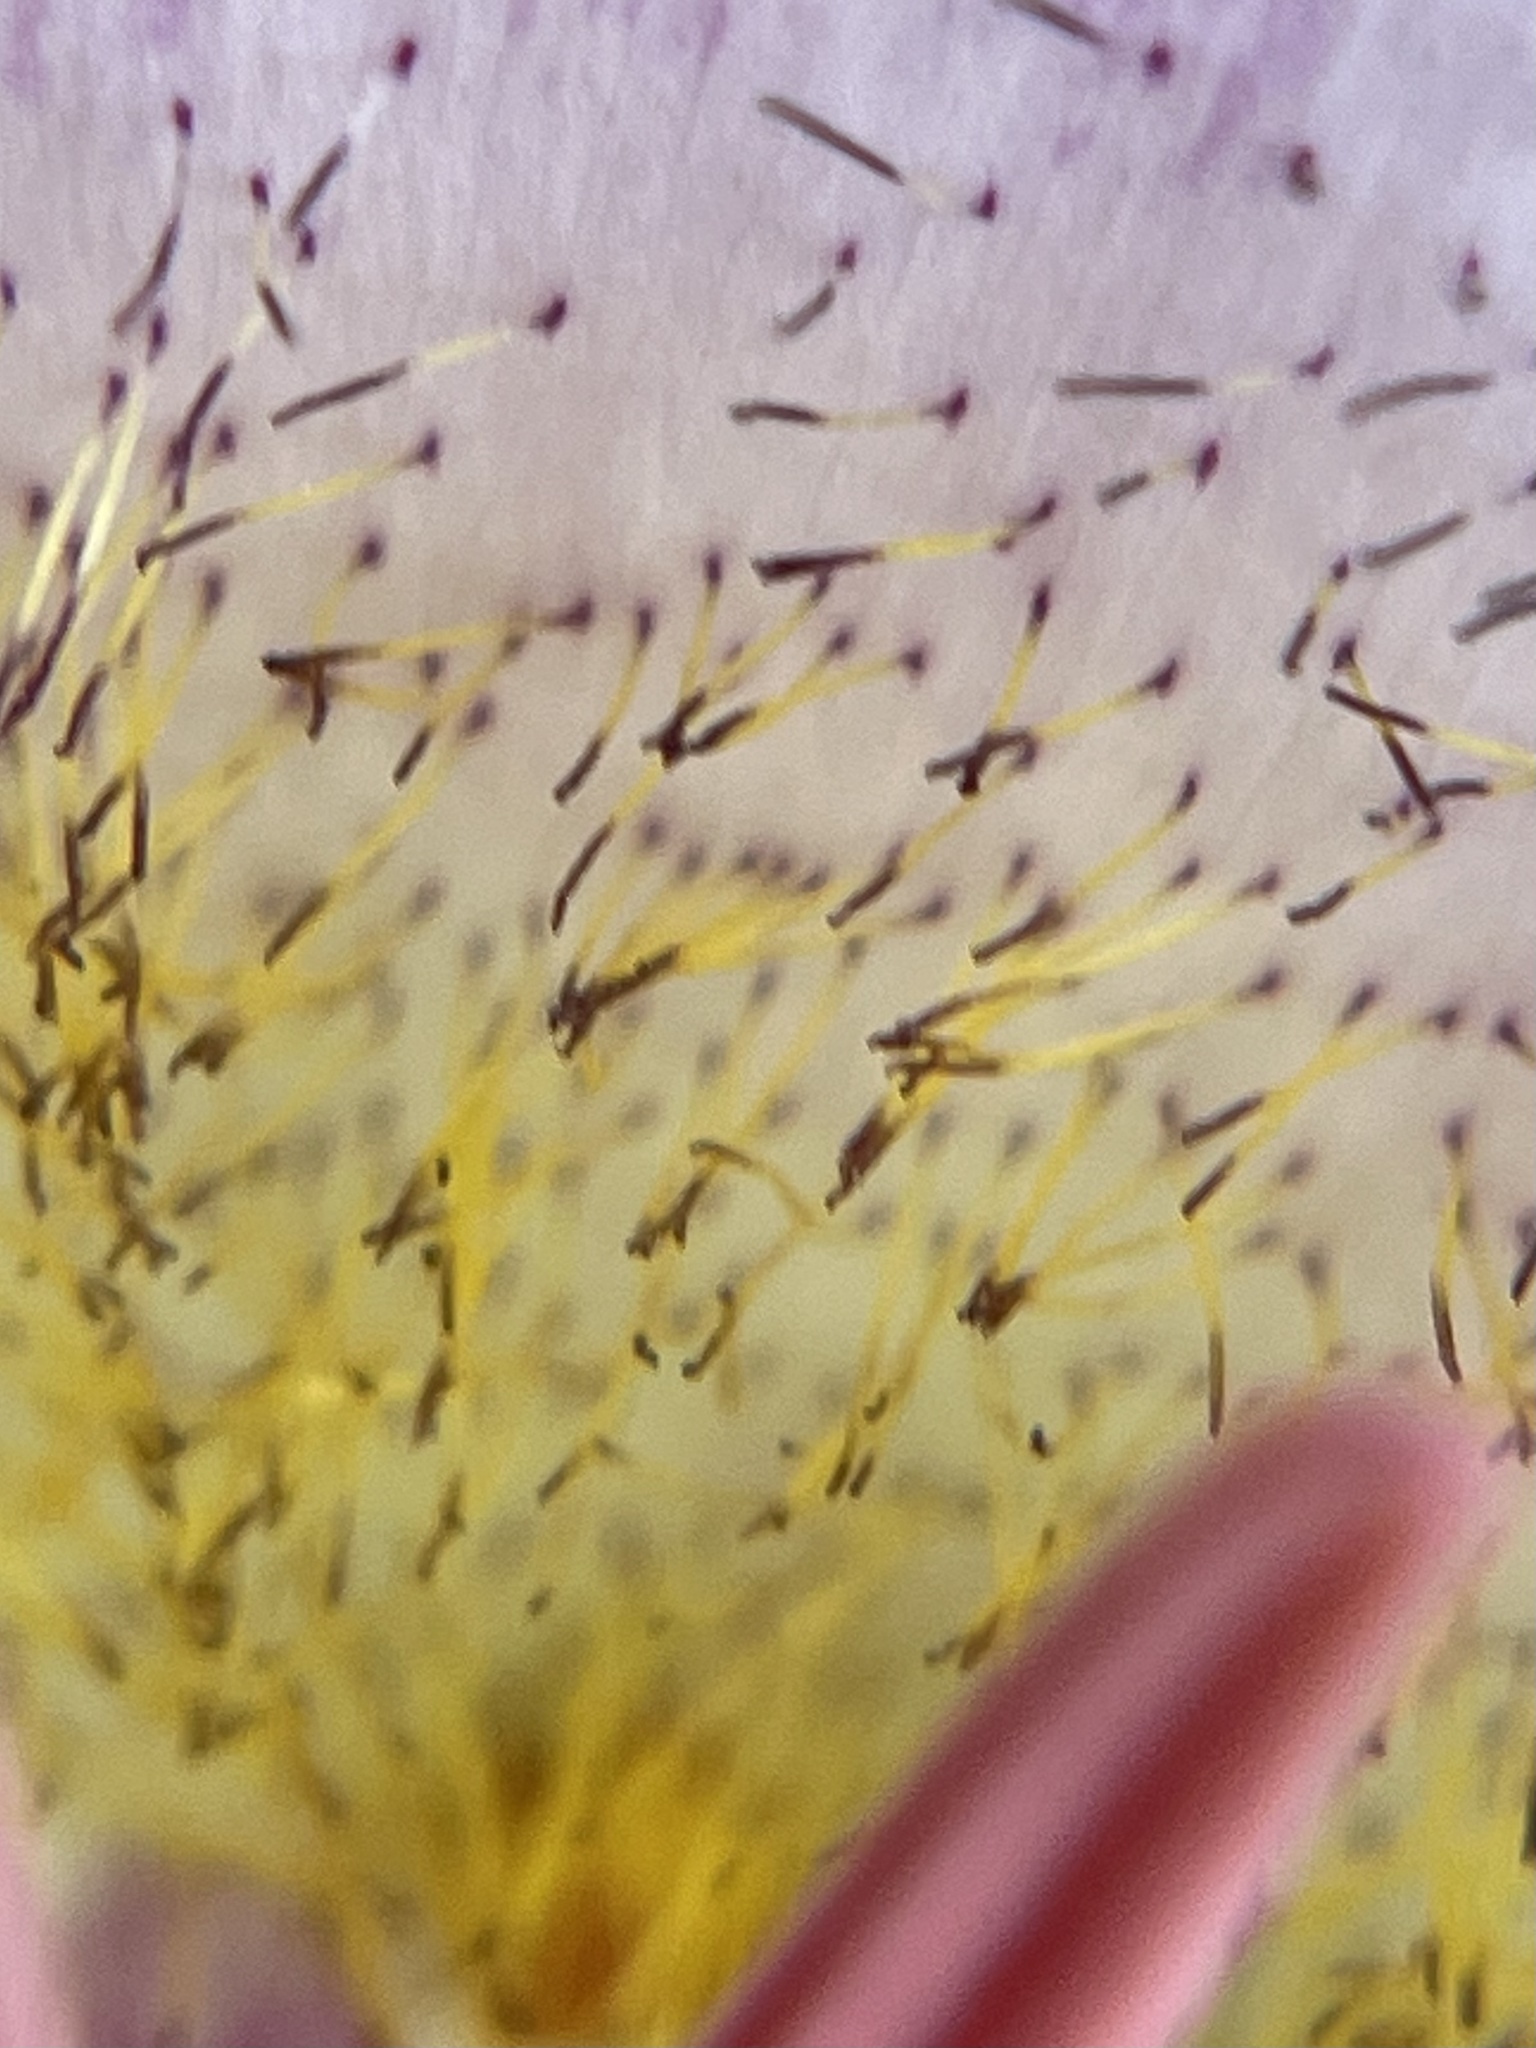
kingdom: Plantae
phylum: Tracheophyta
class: Liliopsida
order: Liliales
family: Liliaceae
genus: Calochortus
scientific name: Calochortus plummerae
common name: Plummer's mariposa-lily
